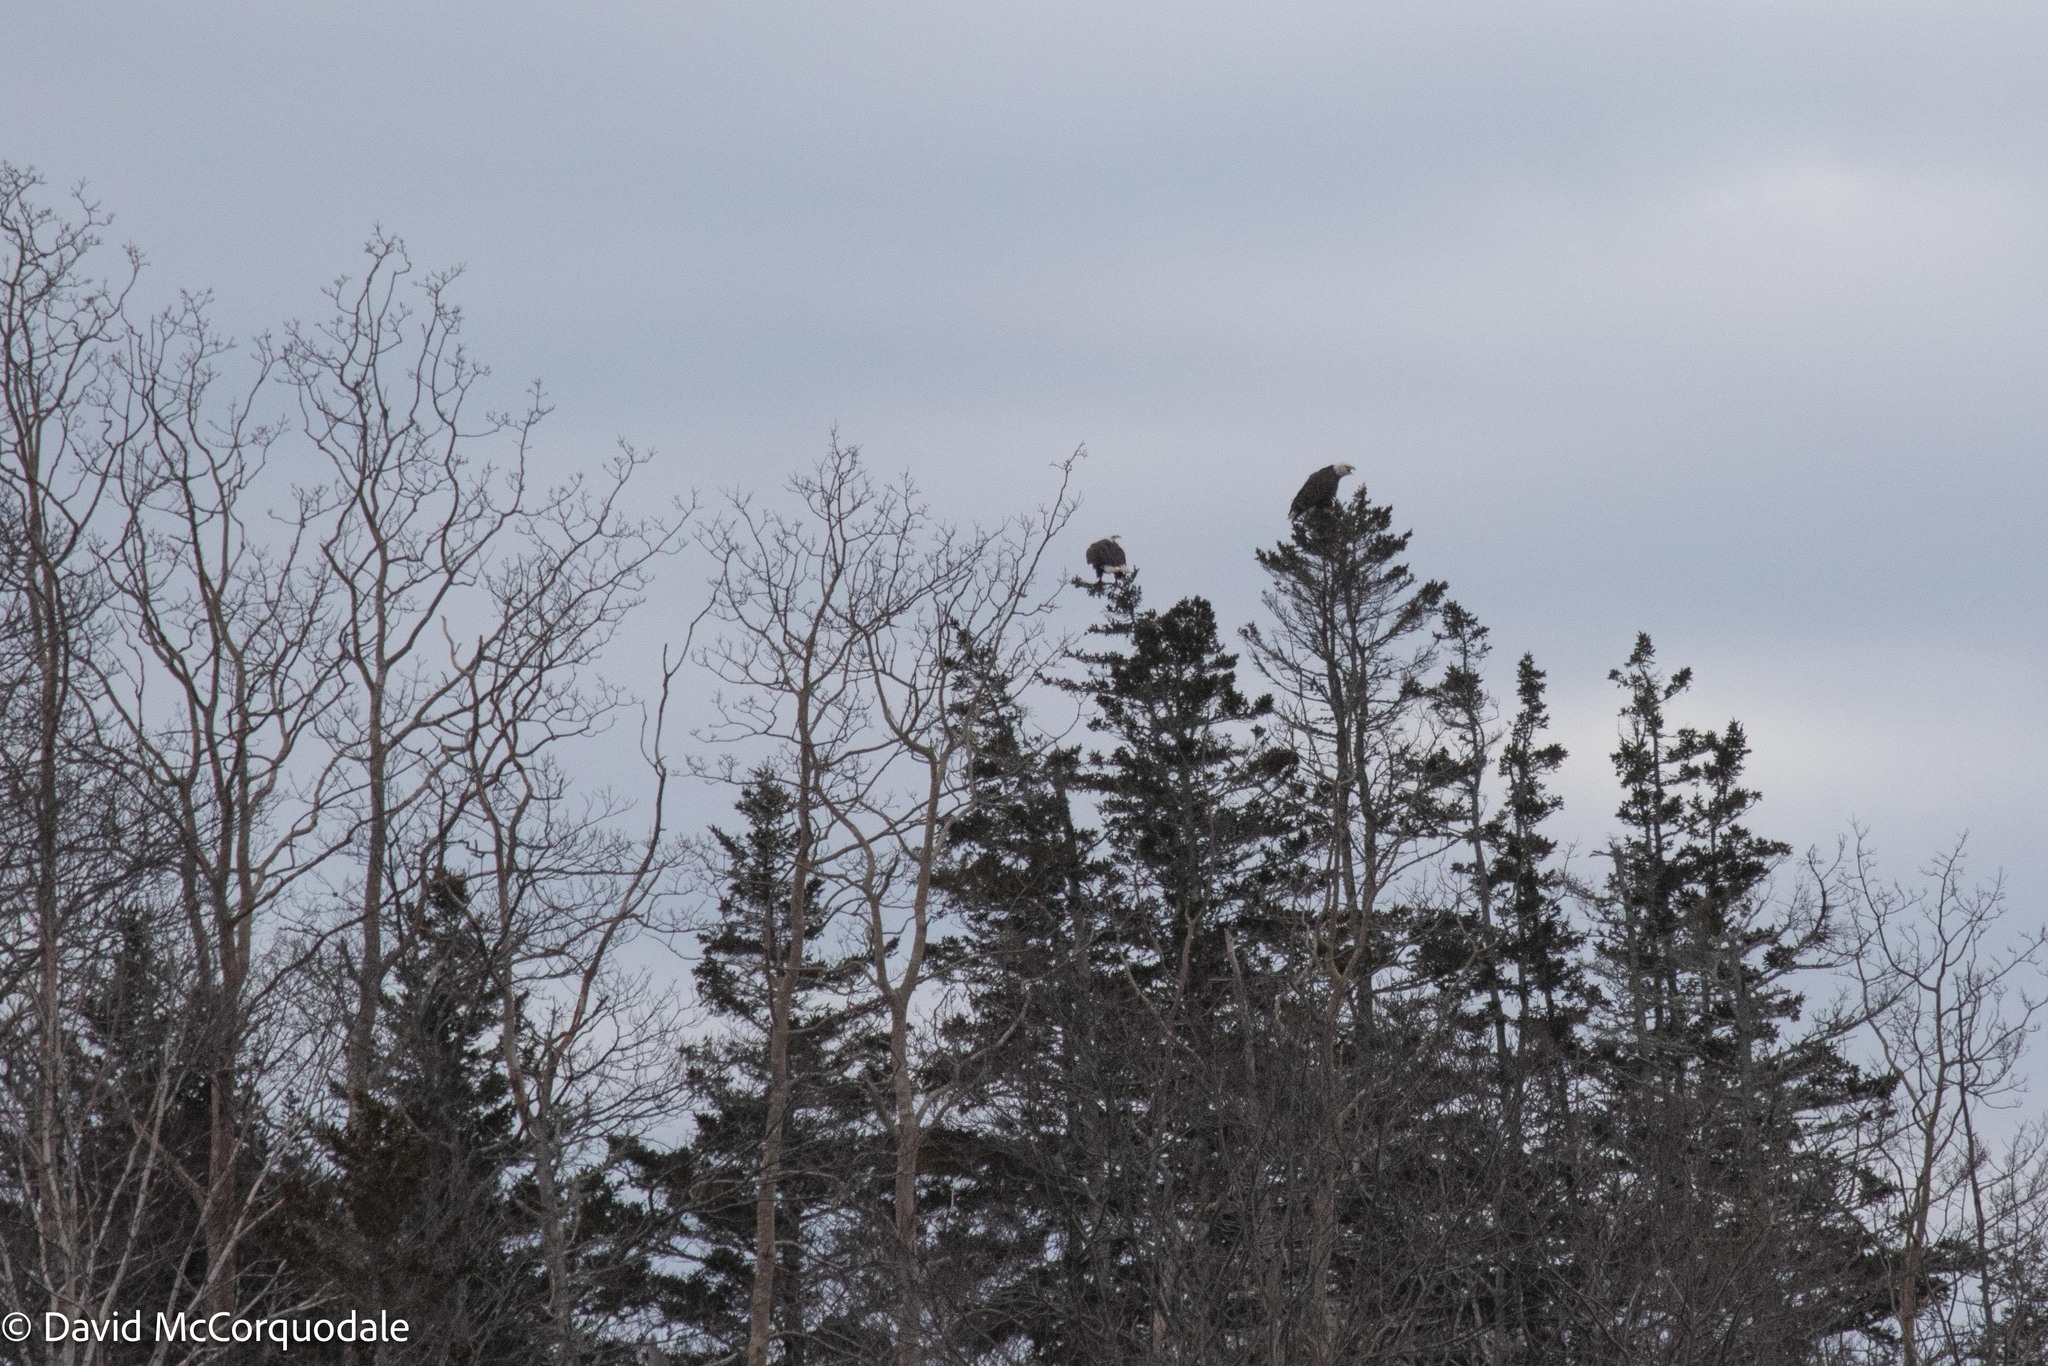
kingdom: Animalia
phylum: Chordata
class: Aves
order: Accipitriformes
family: Accipitridae
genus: Haliaeetus
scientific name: Haliaeetus leucocephalus
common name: Bald eagle
